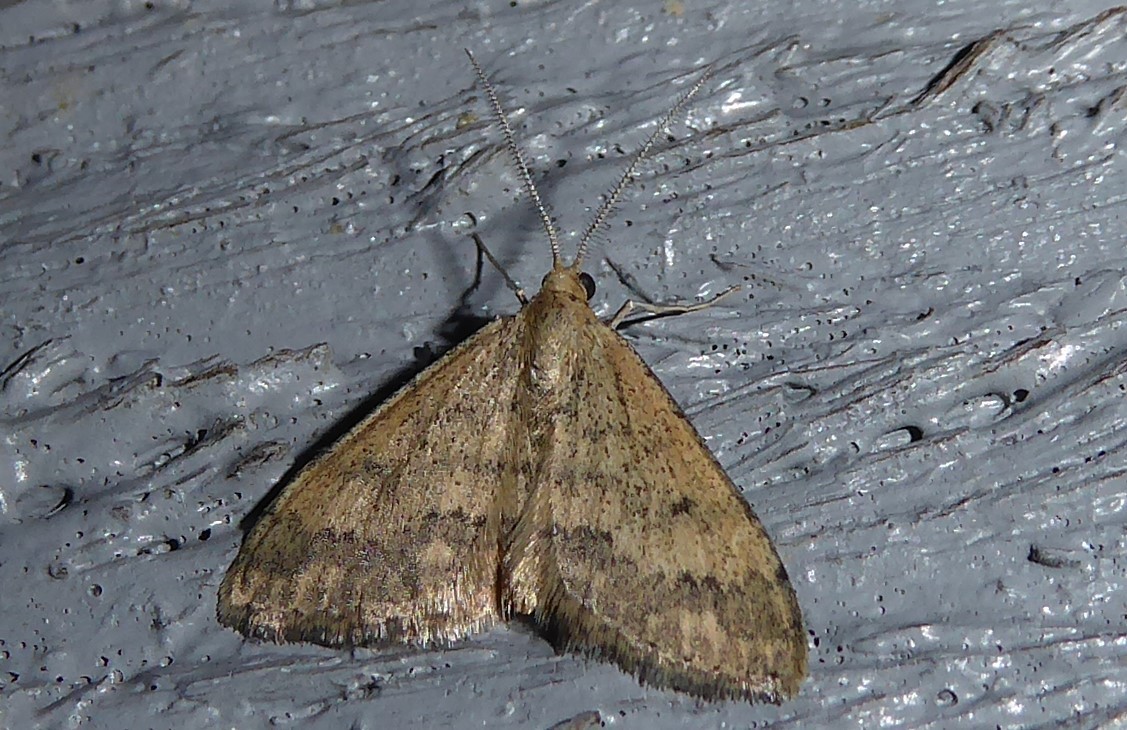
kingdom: Animalia
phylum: Arthropoda
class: Insecta
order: Lepidoptera
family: Geometridae
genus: Scopula
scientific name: Scopula rubraria
